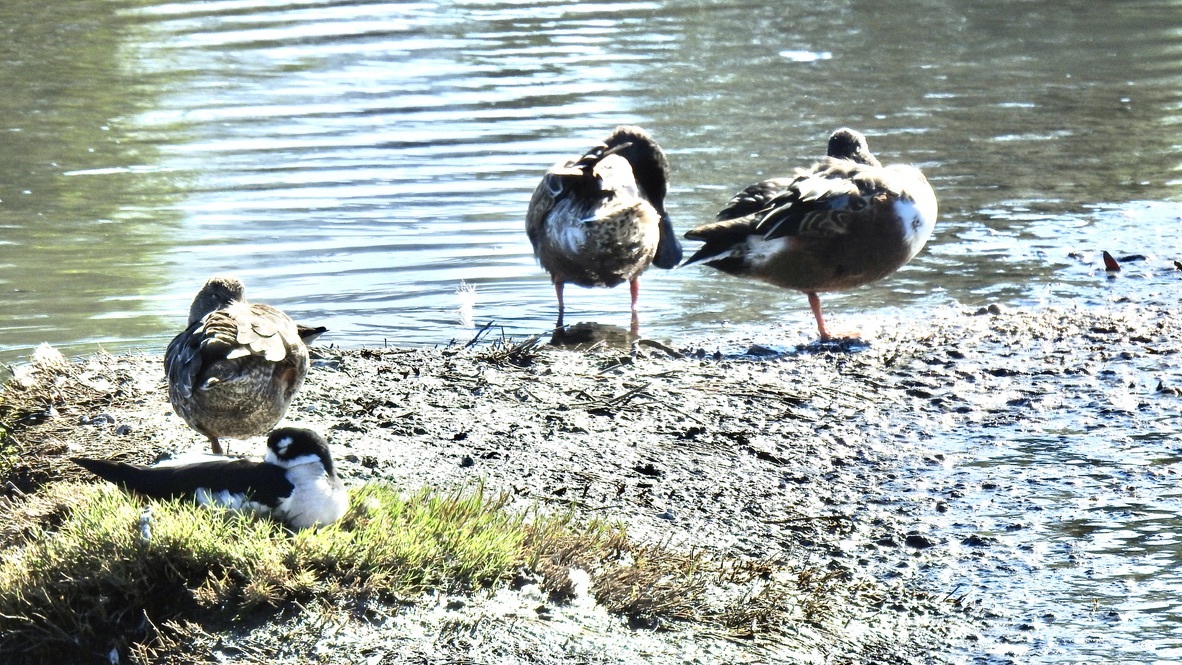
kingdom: Animalia
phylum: Chordata
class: Aves
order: Anseriformes
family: Anatidae
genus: Anas
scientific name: Anas platyrhynchos
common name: Mallard
